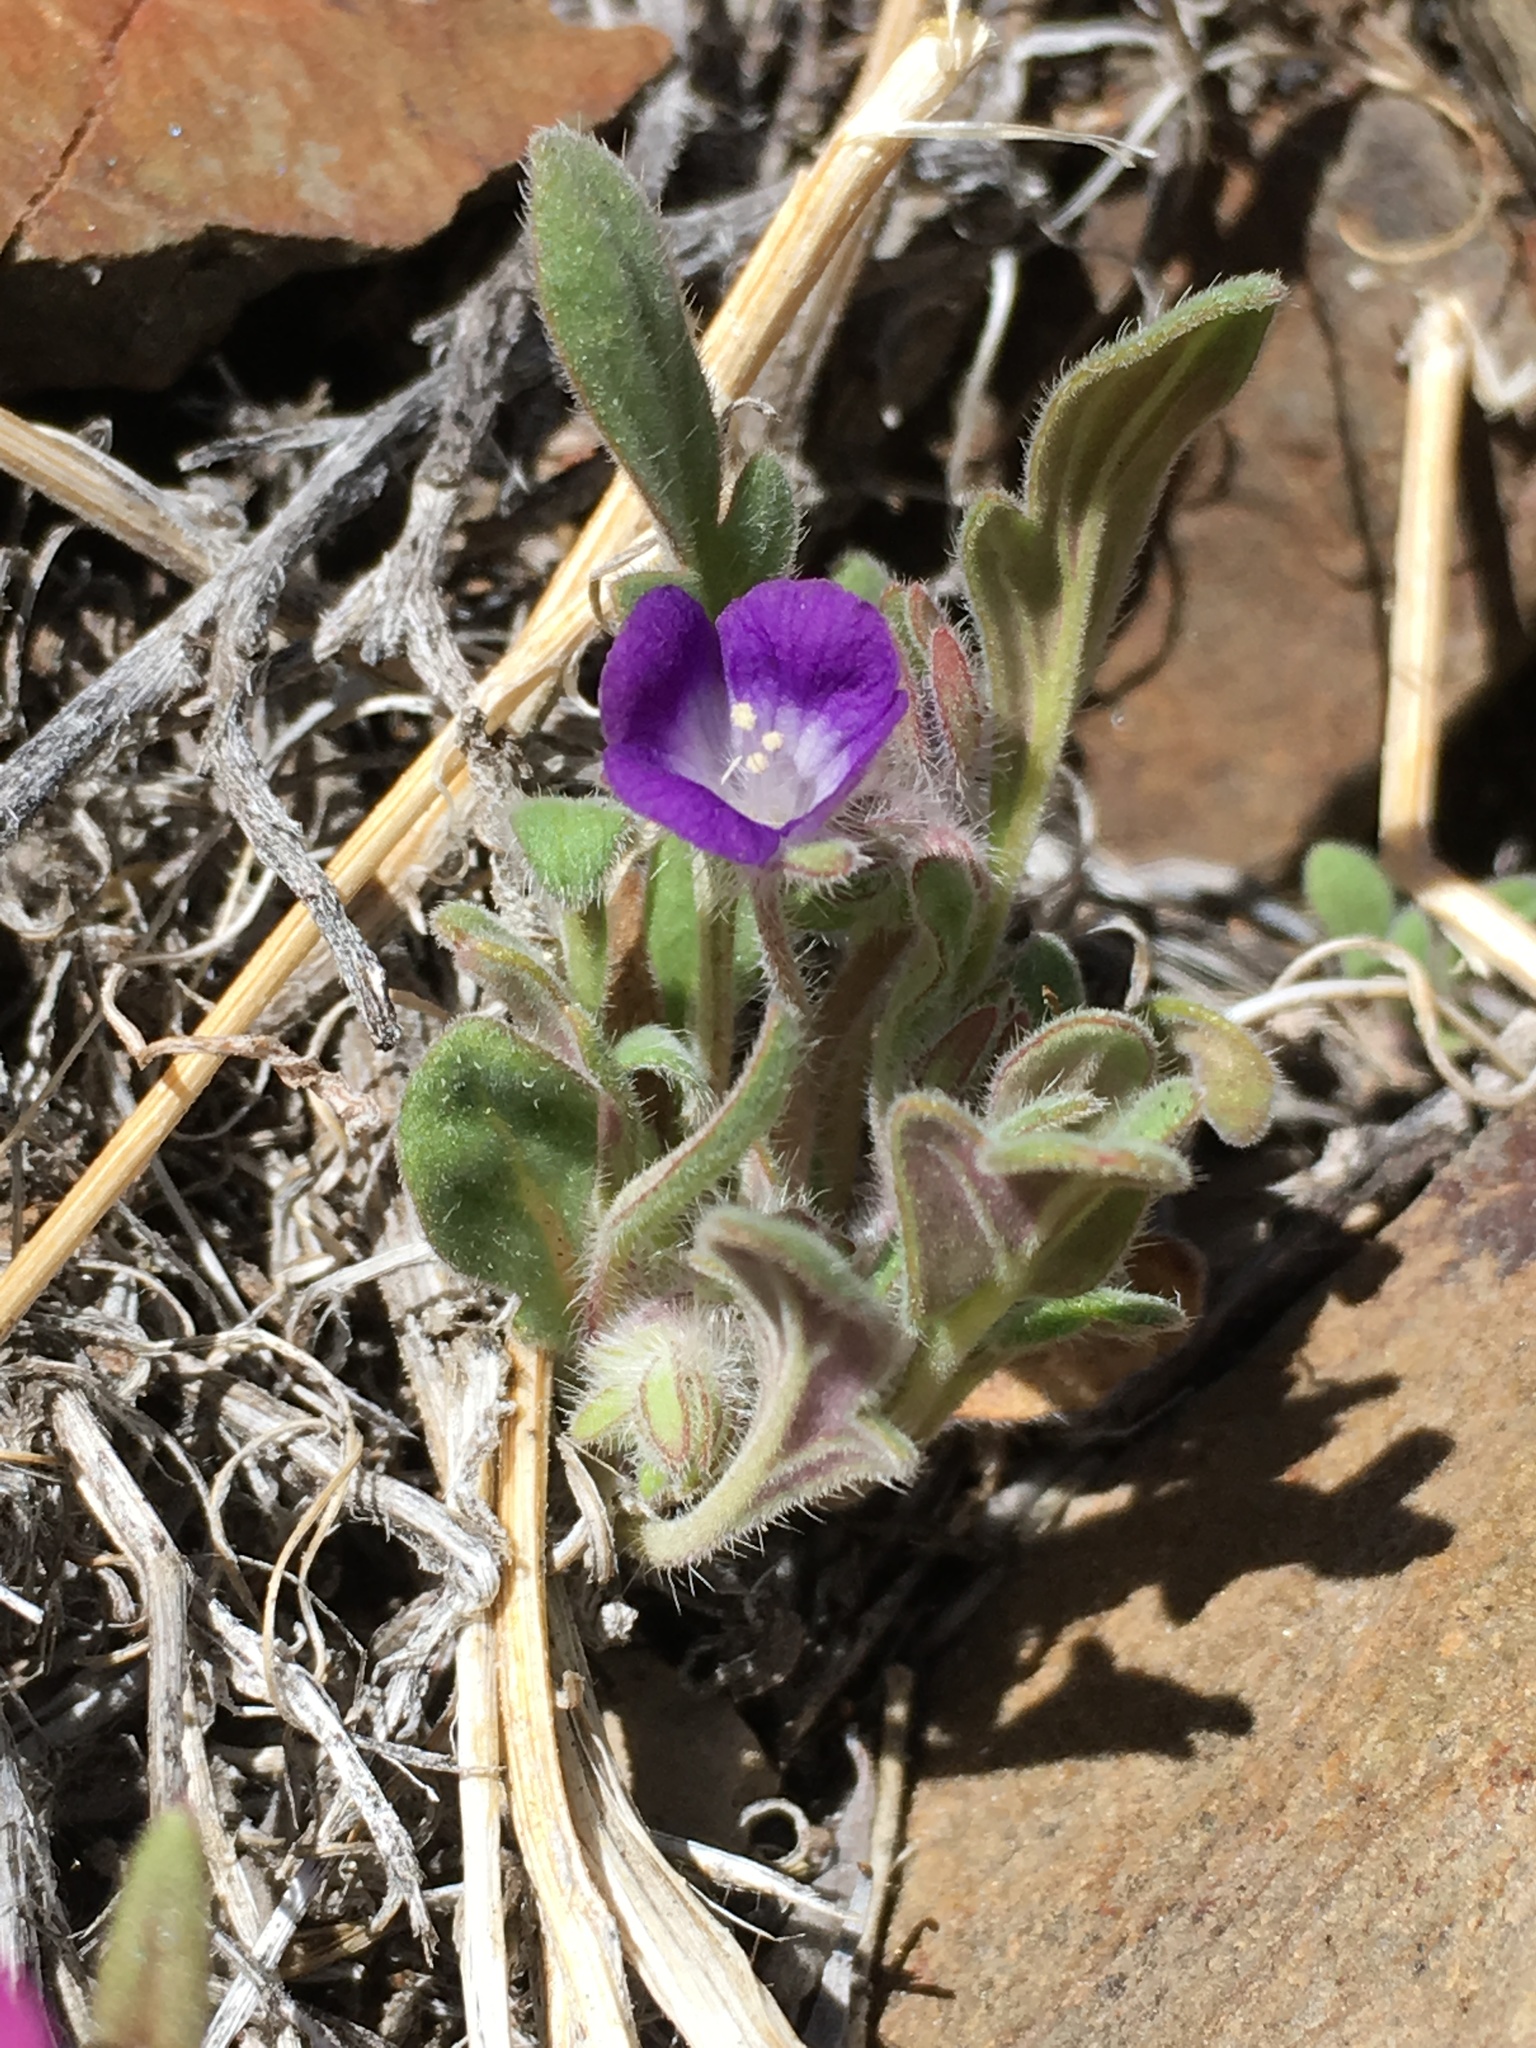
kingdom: Plantae
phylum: Tracheophyta
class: Magnoliopsida
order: Boraginales
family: Hydrophyllaceae
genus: Phacelia
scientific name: Phacelia curvipes
